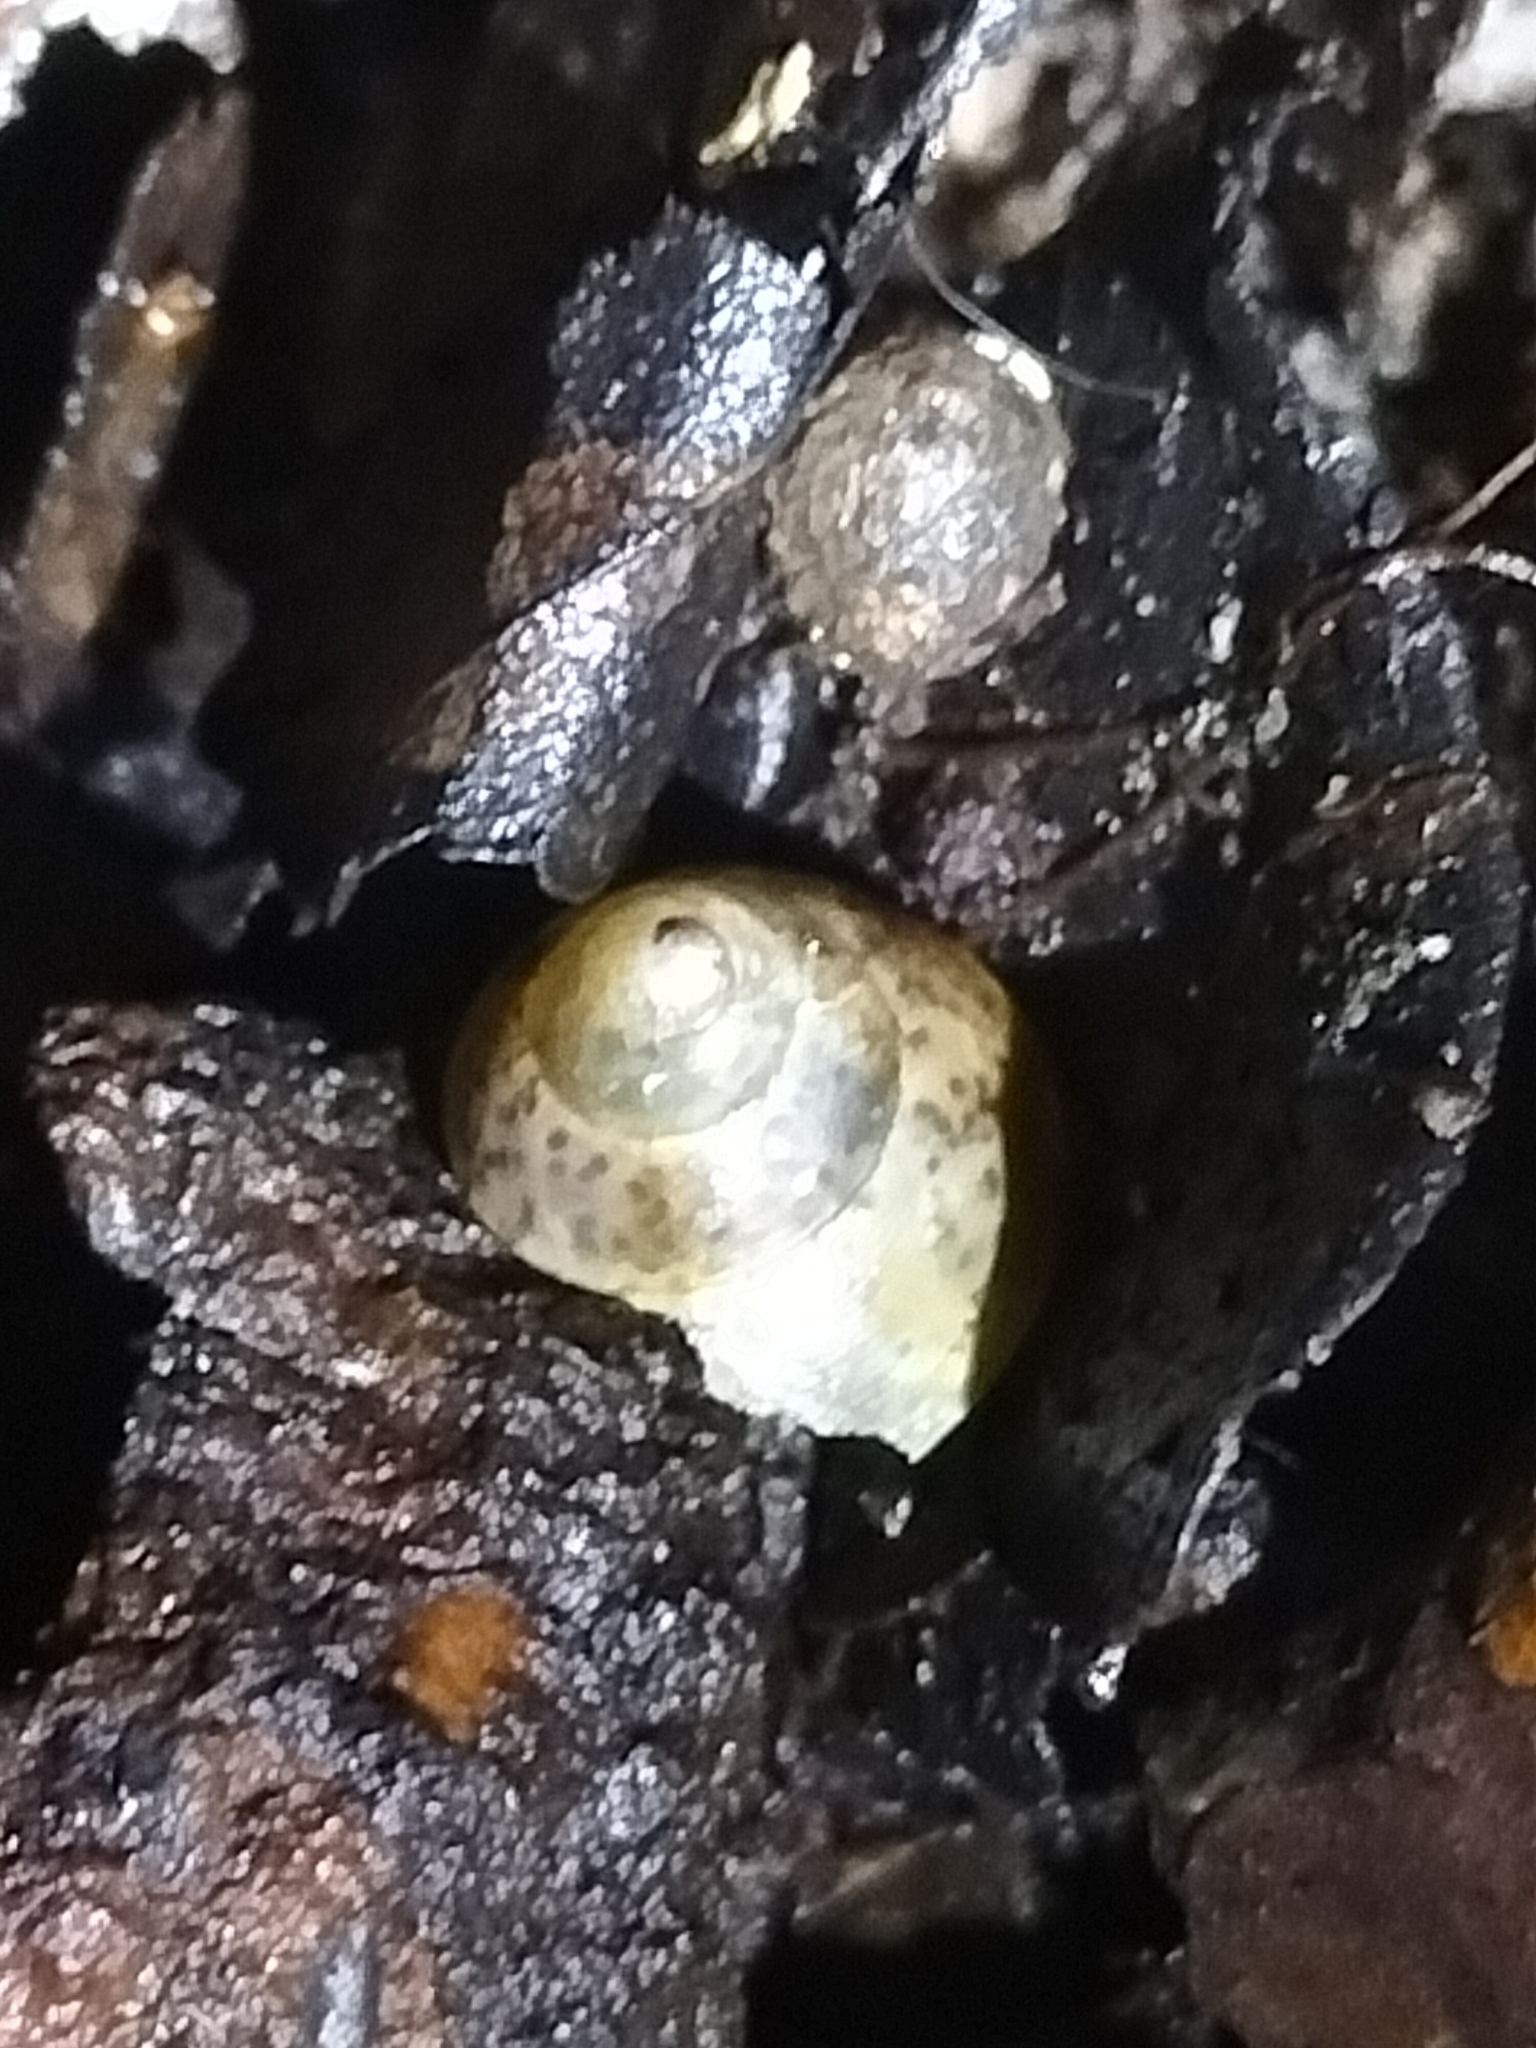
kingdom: Animalia
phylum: Mollusca
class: Gastropoda
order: Stylommatophora
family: Camaenidae
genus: Rhynchotrochus
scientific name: Rhynchotrochus macgillivrayi
